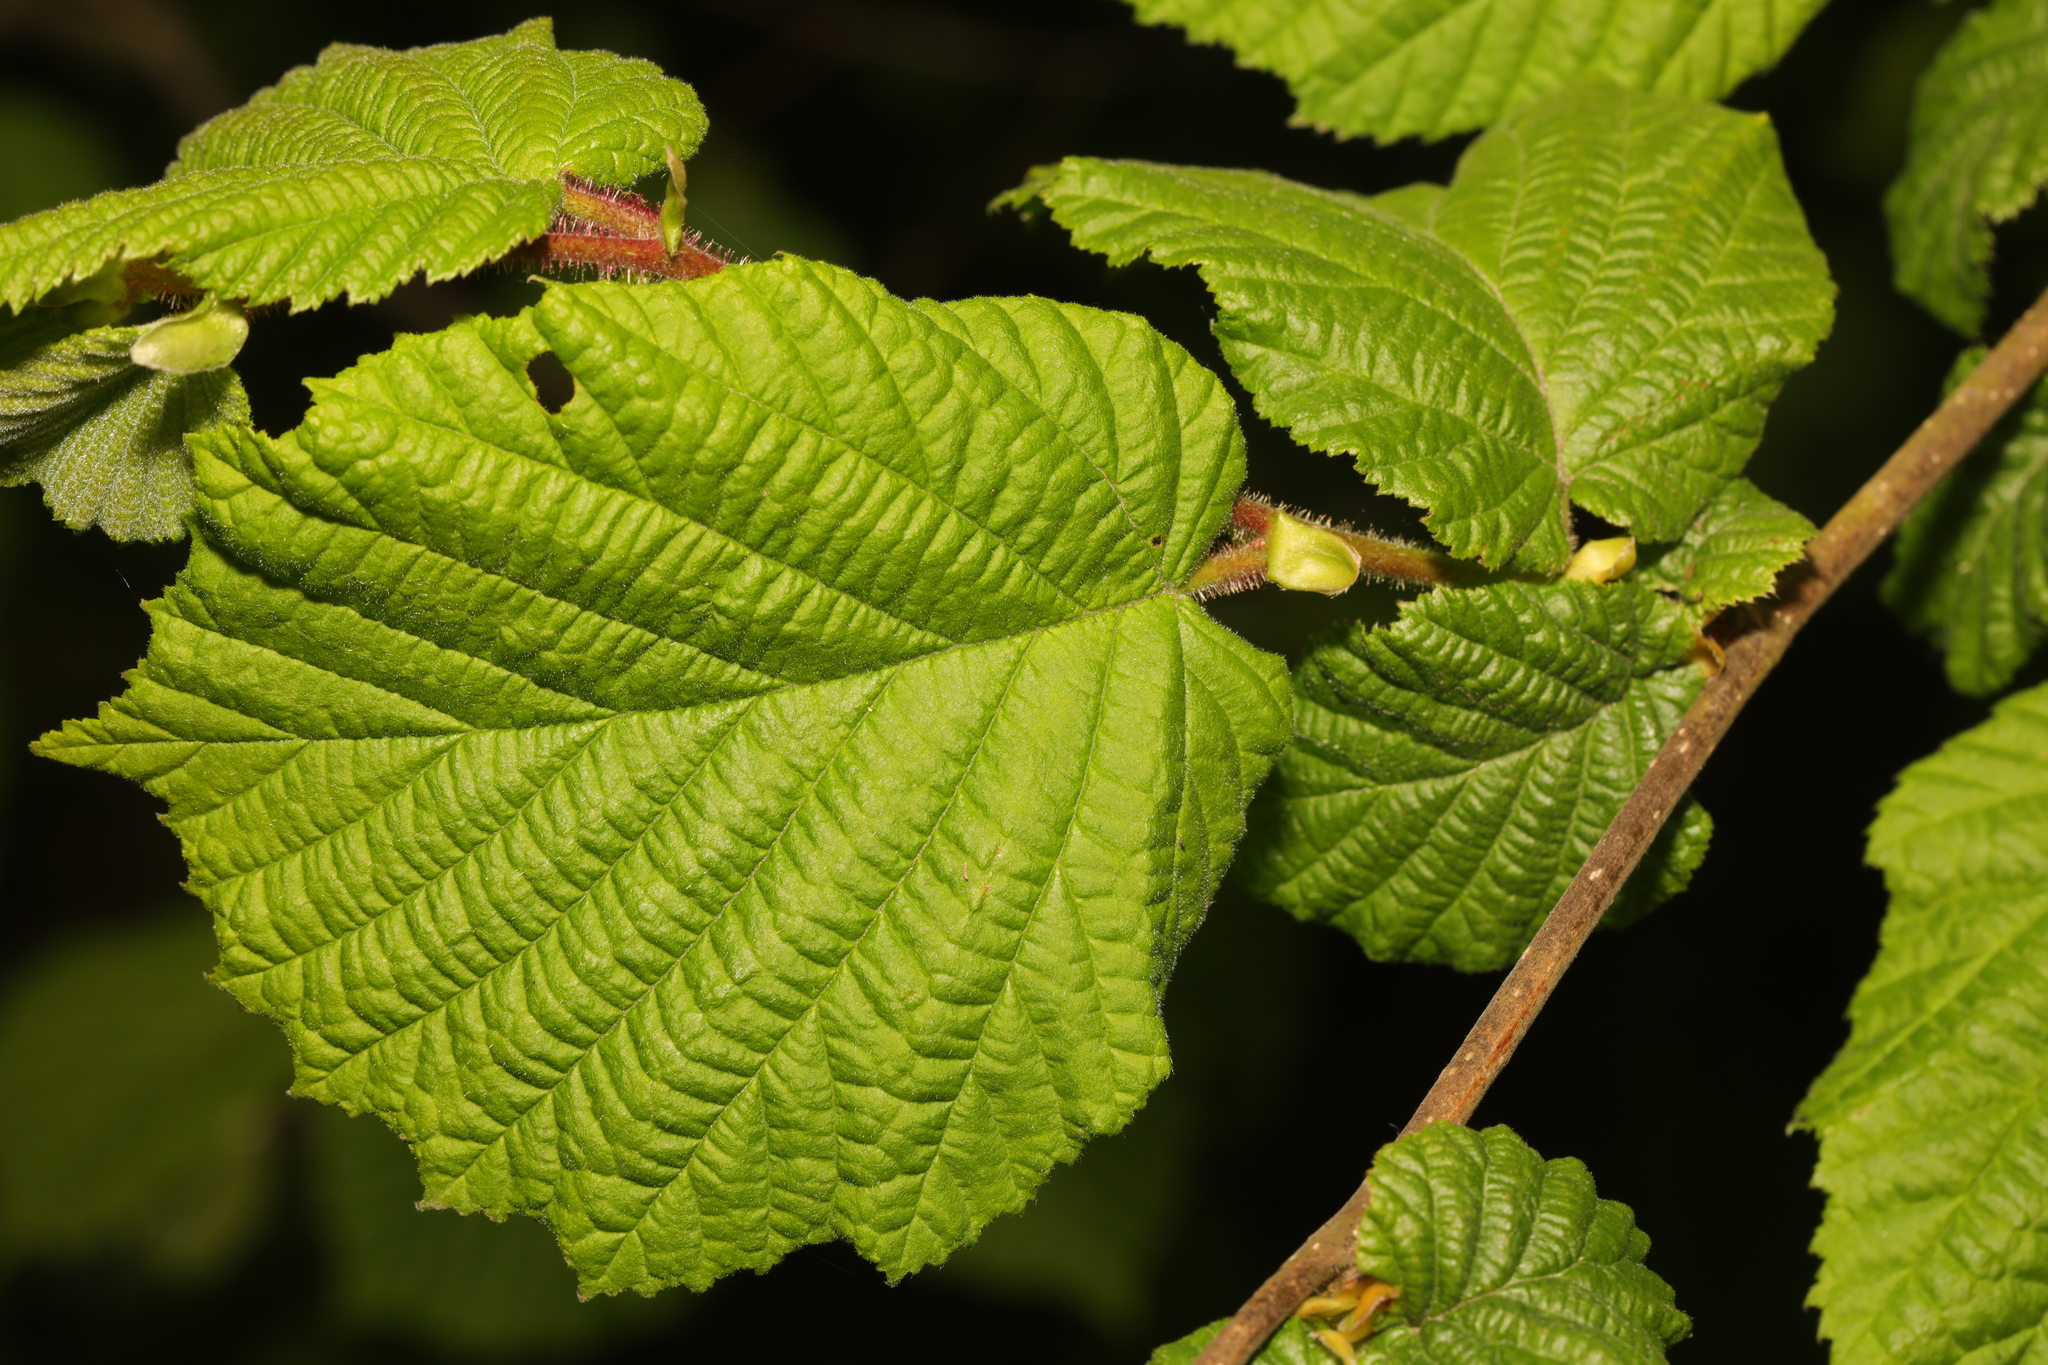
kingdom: Plantae
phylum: Tracheophyta
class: Magnoliopsida
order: Fagales
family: Betulaceae
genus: Corylus
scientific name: Corylus avellana
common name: European hazel
